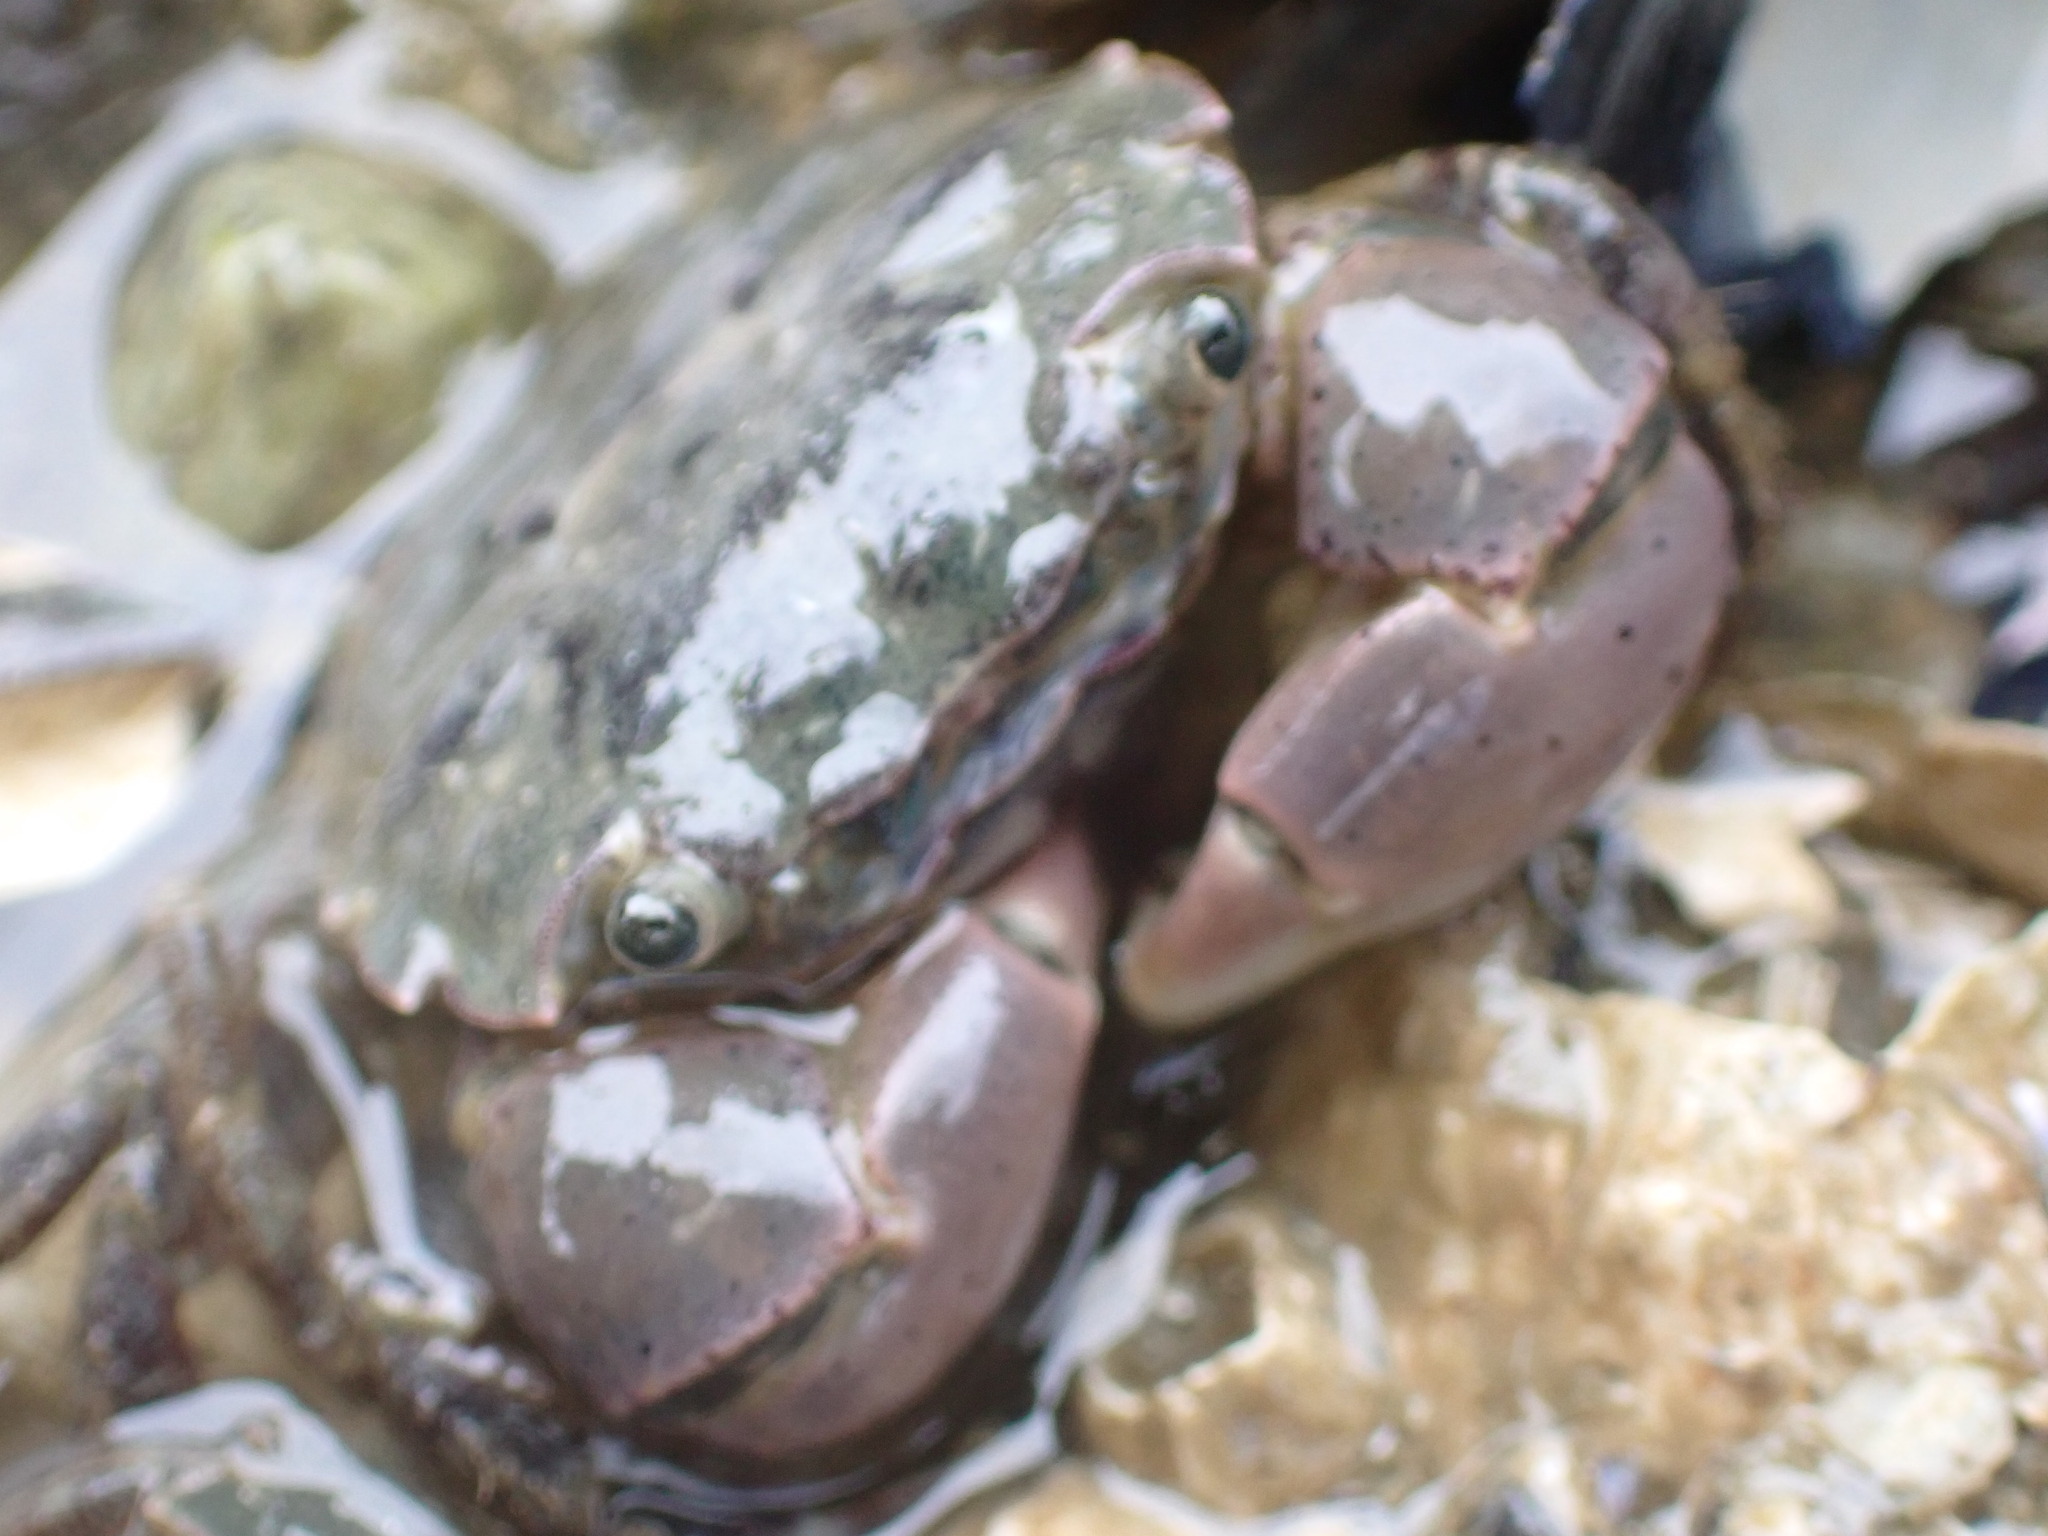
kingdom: Animalia
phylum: Arthropoda
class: Malacostraca
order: Decapoda
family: Varunidae
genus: Hemigrapsus
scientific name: Hemigrapsus oregonensis
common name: Yellow shore crab
